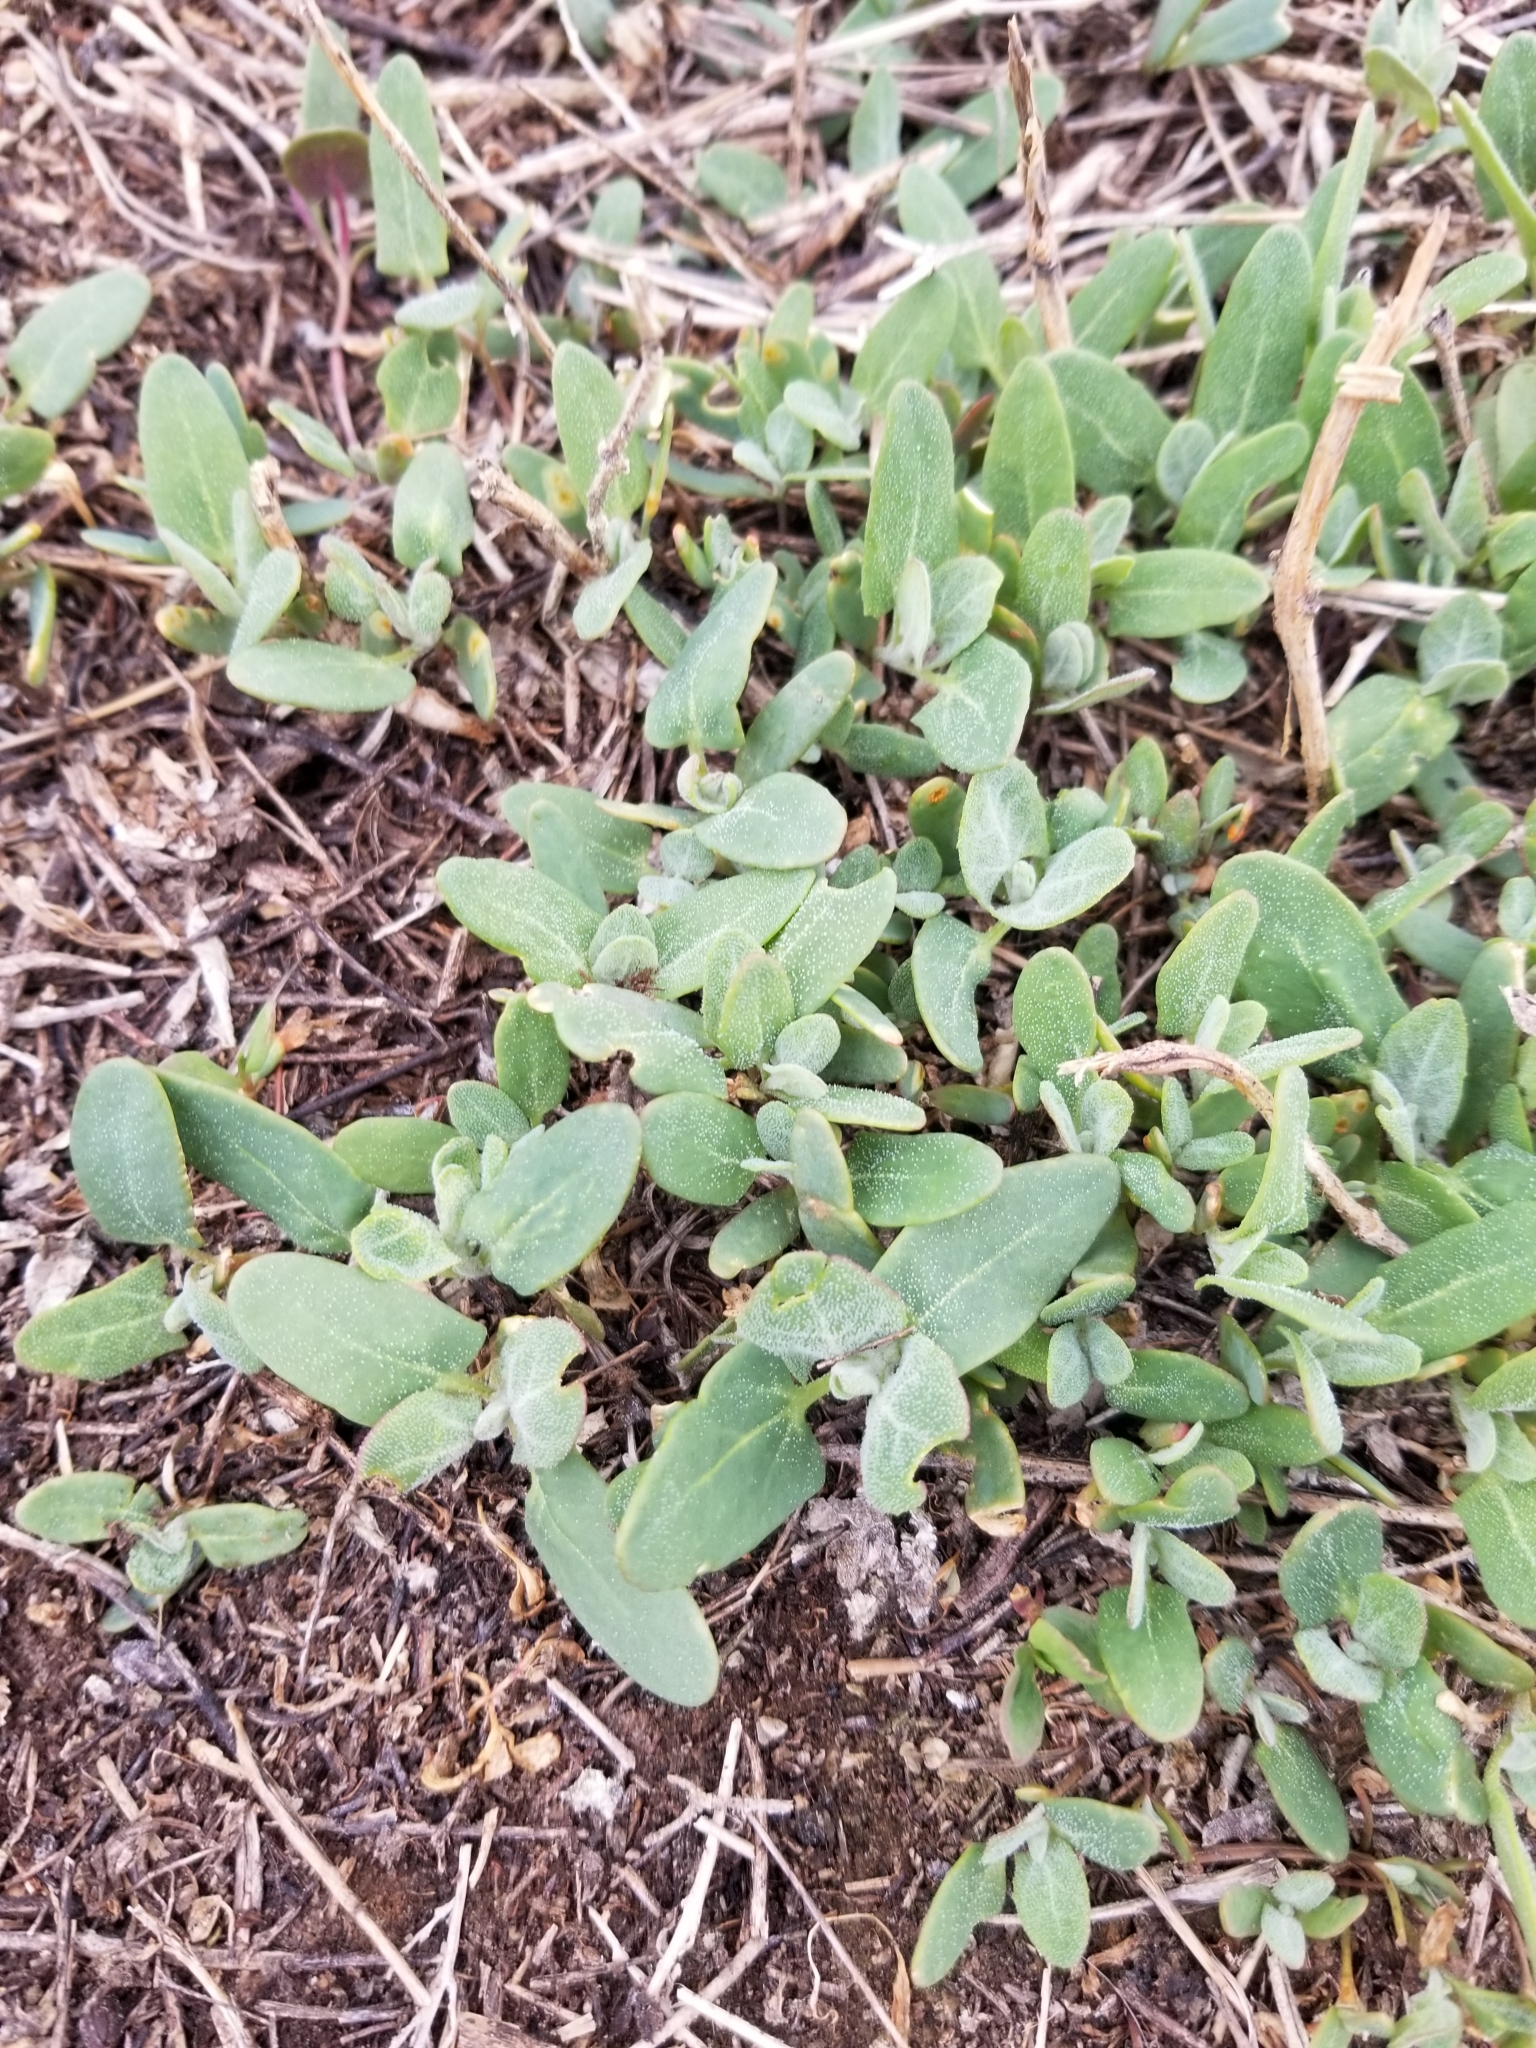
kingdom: Plantae
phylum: Tracheophyta
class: Magnoliopsida
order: Caryophyllales
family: Amaranthaceae
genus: Chenopodium
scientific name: Chenopodium album
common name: Fat-hen
